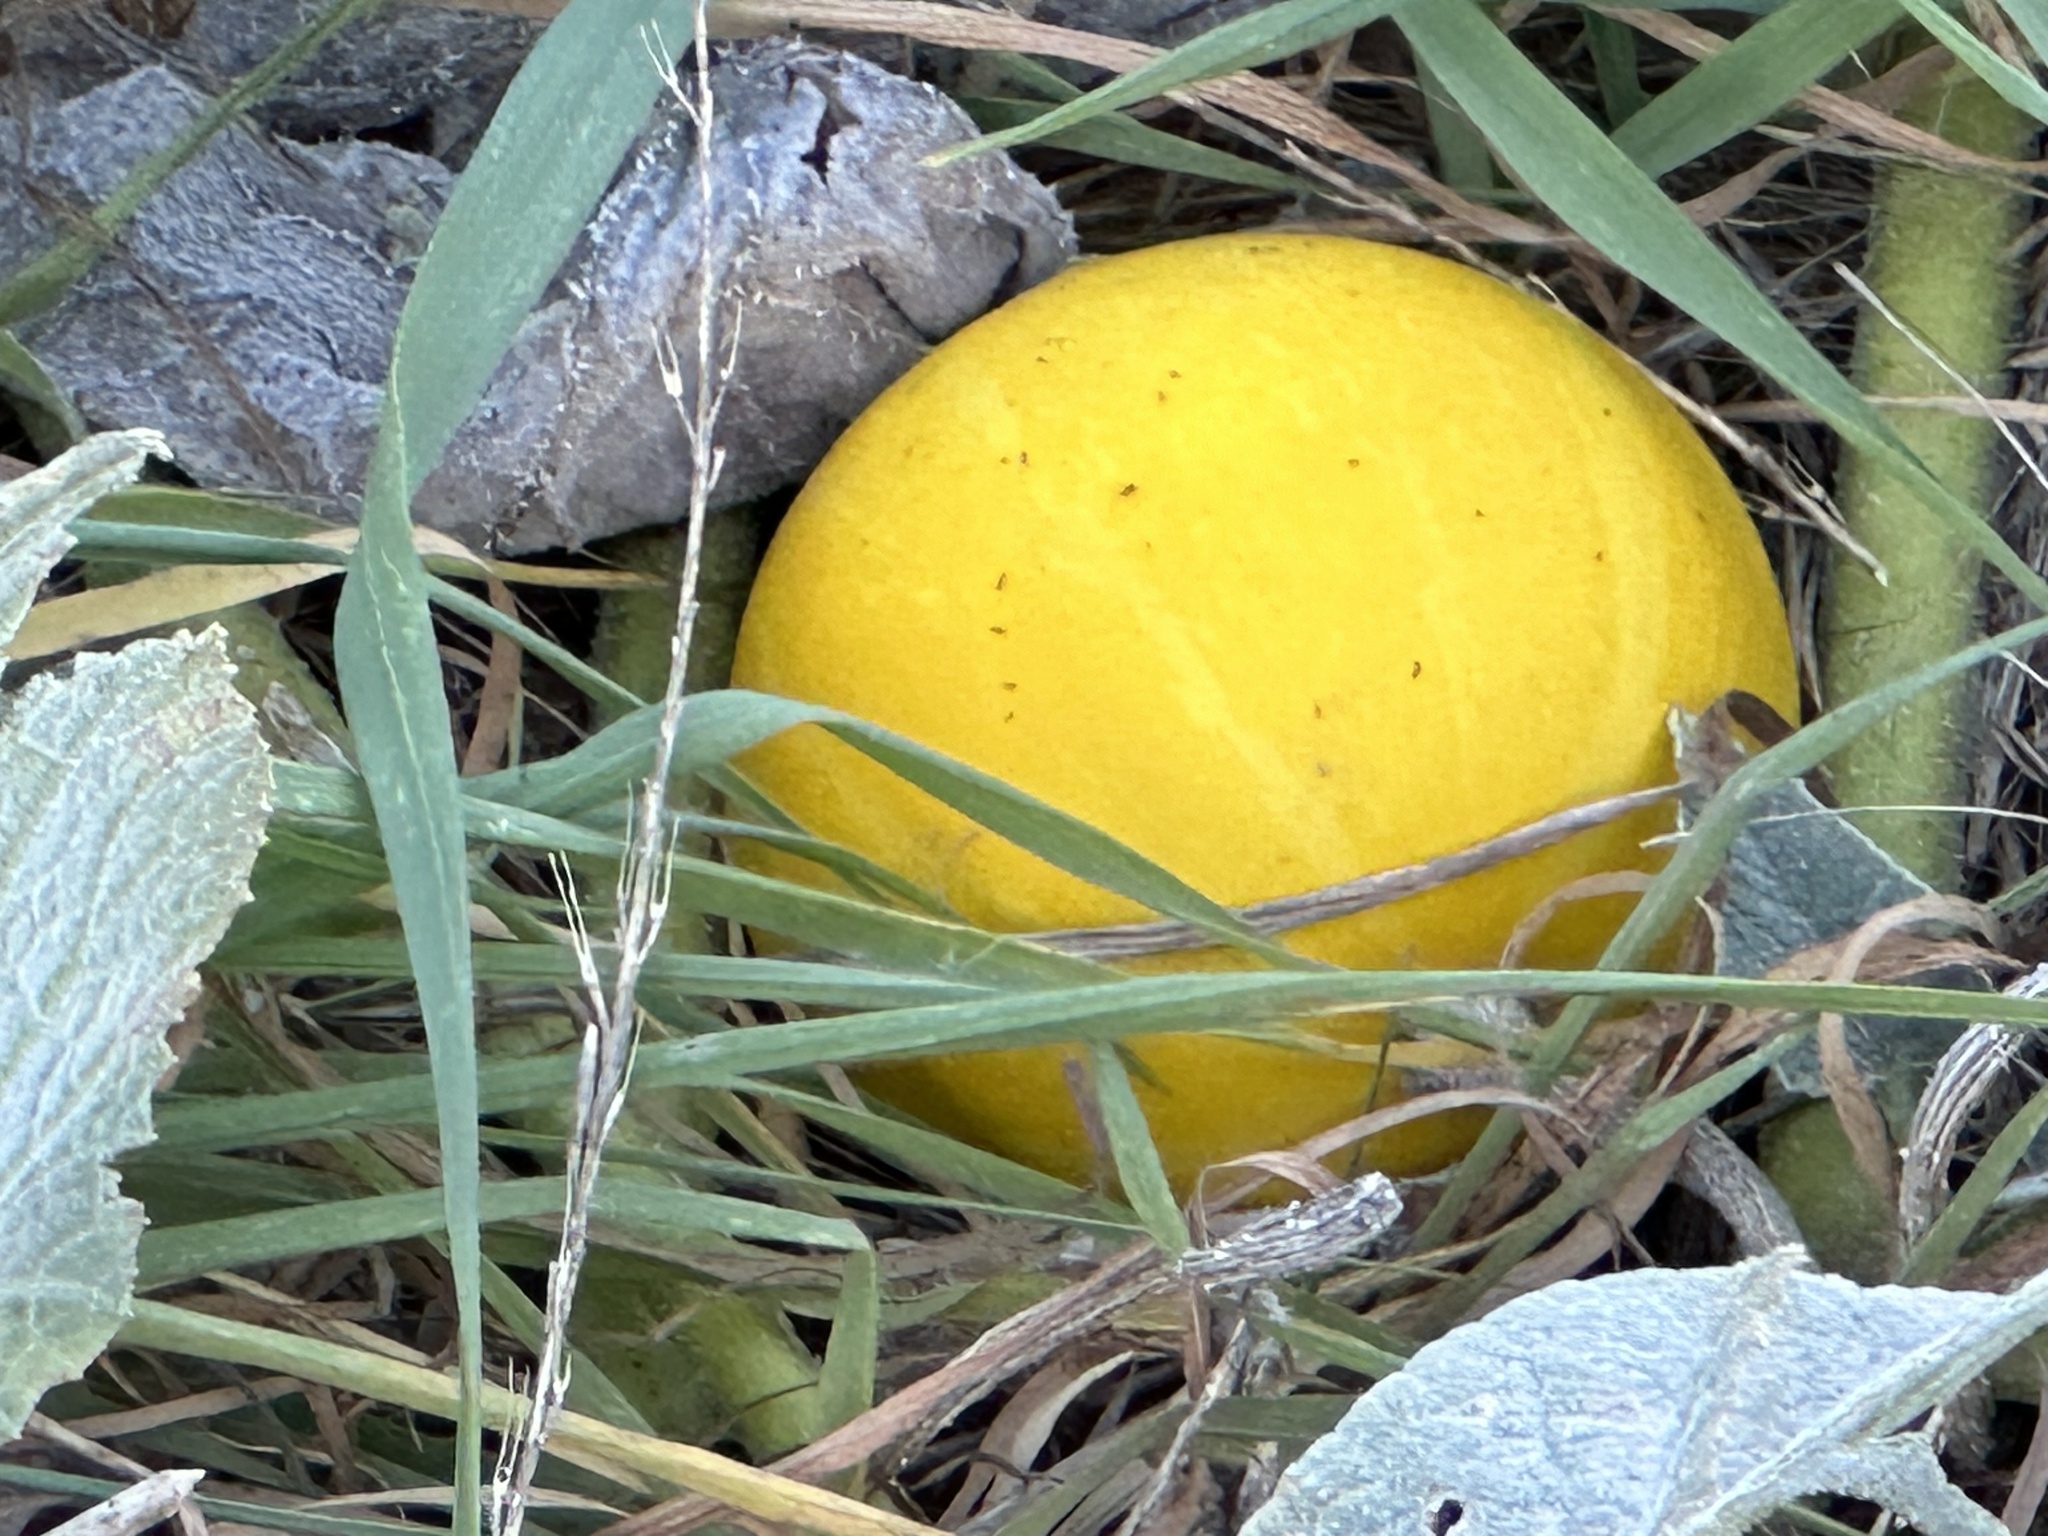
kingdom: Plantae
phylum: Tracheophyta
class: Magnoliopsida
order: Cucurbitales
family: Cucurbitaceae
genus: Cucurbita
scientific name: Cucurbita foetidissima
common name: Buffalo gourd
